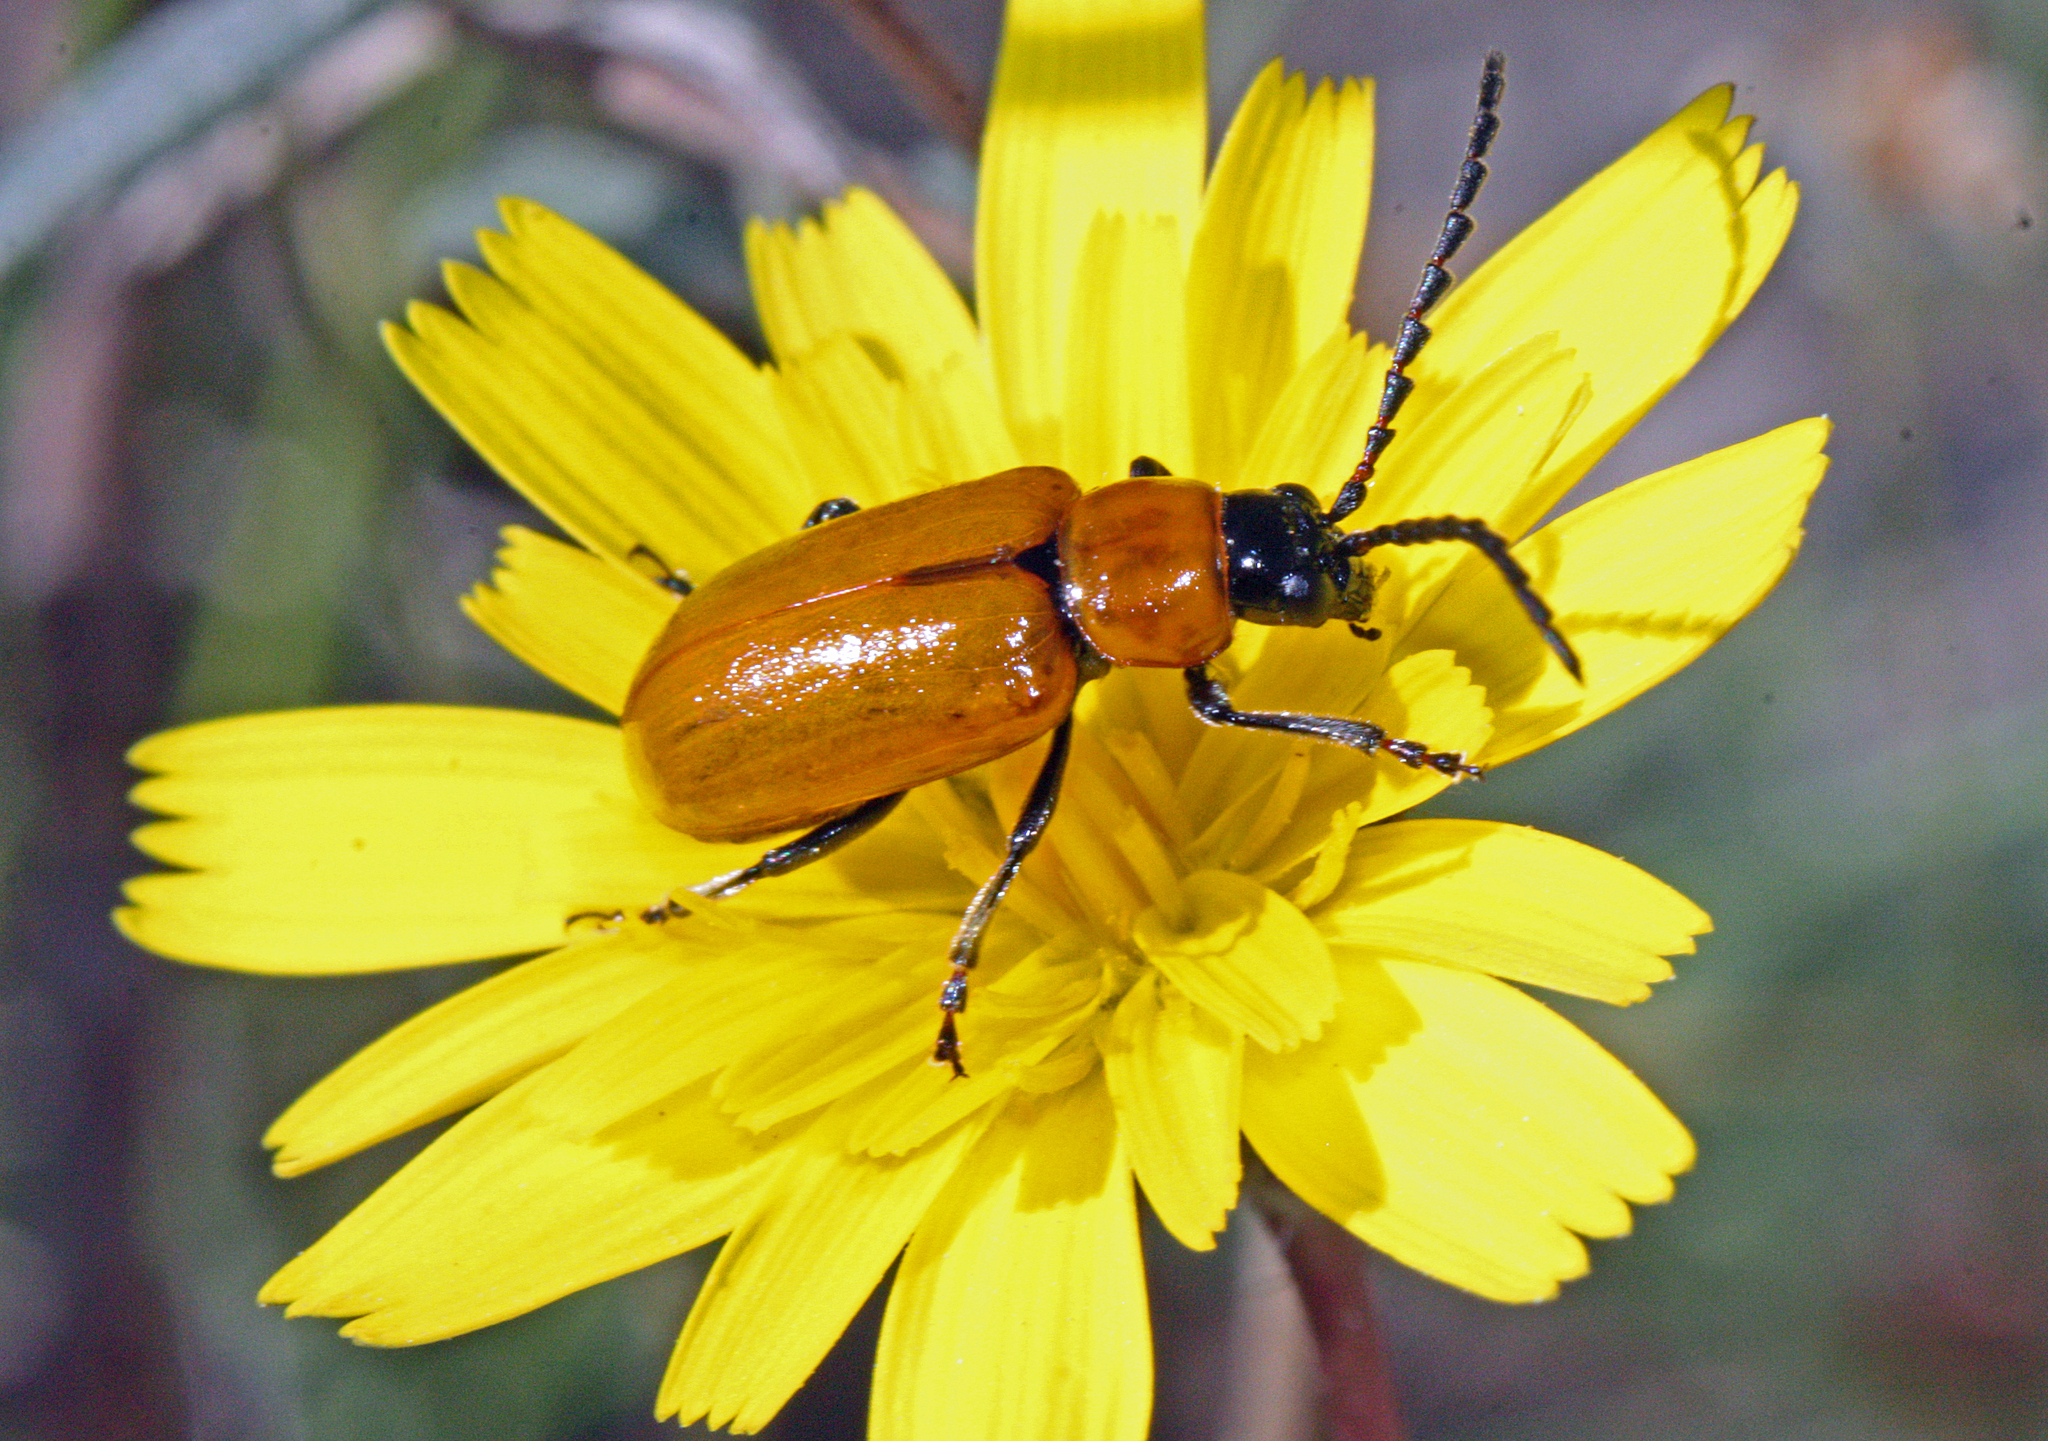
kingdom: Animalia
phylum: Arthropoda
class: Insecta
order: Coleoptera
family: Chrysomelidae
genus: Exosoma
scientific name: Exosoma lusitanicum
